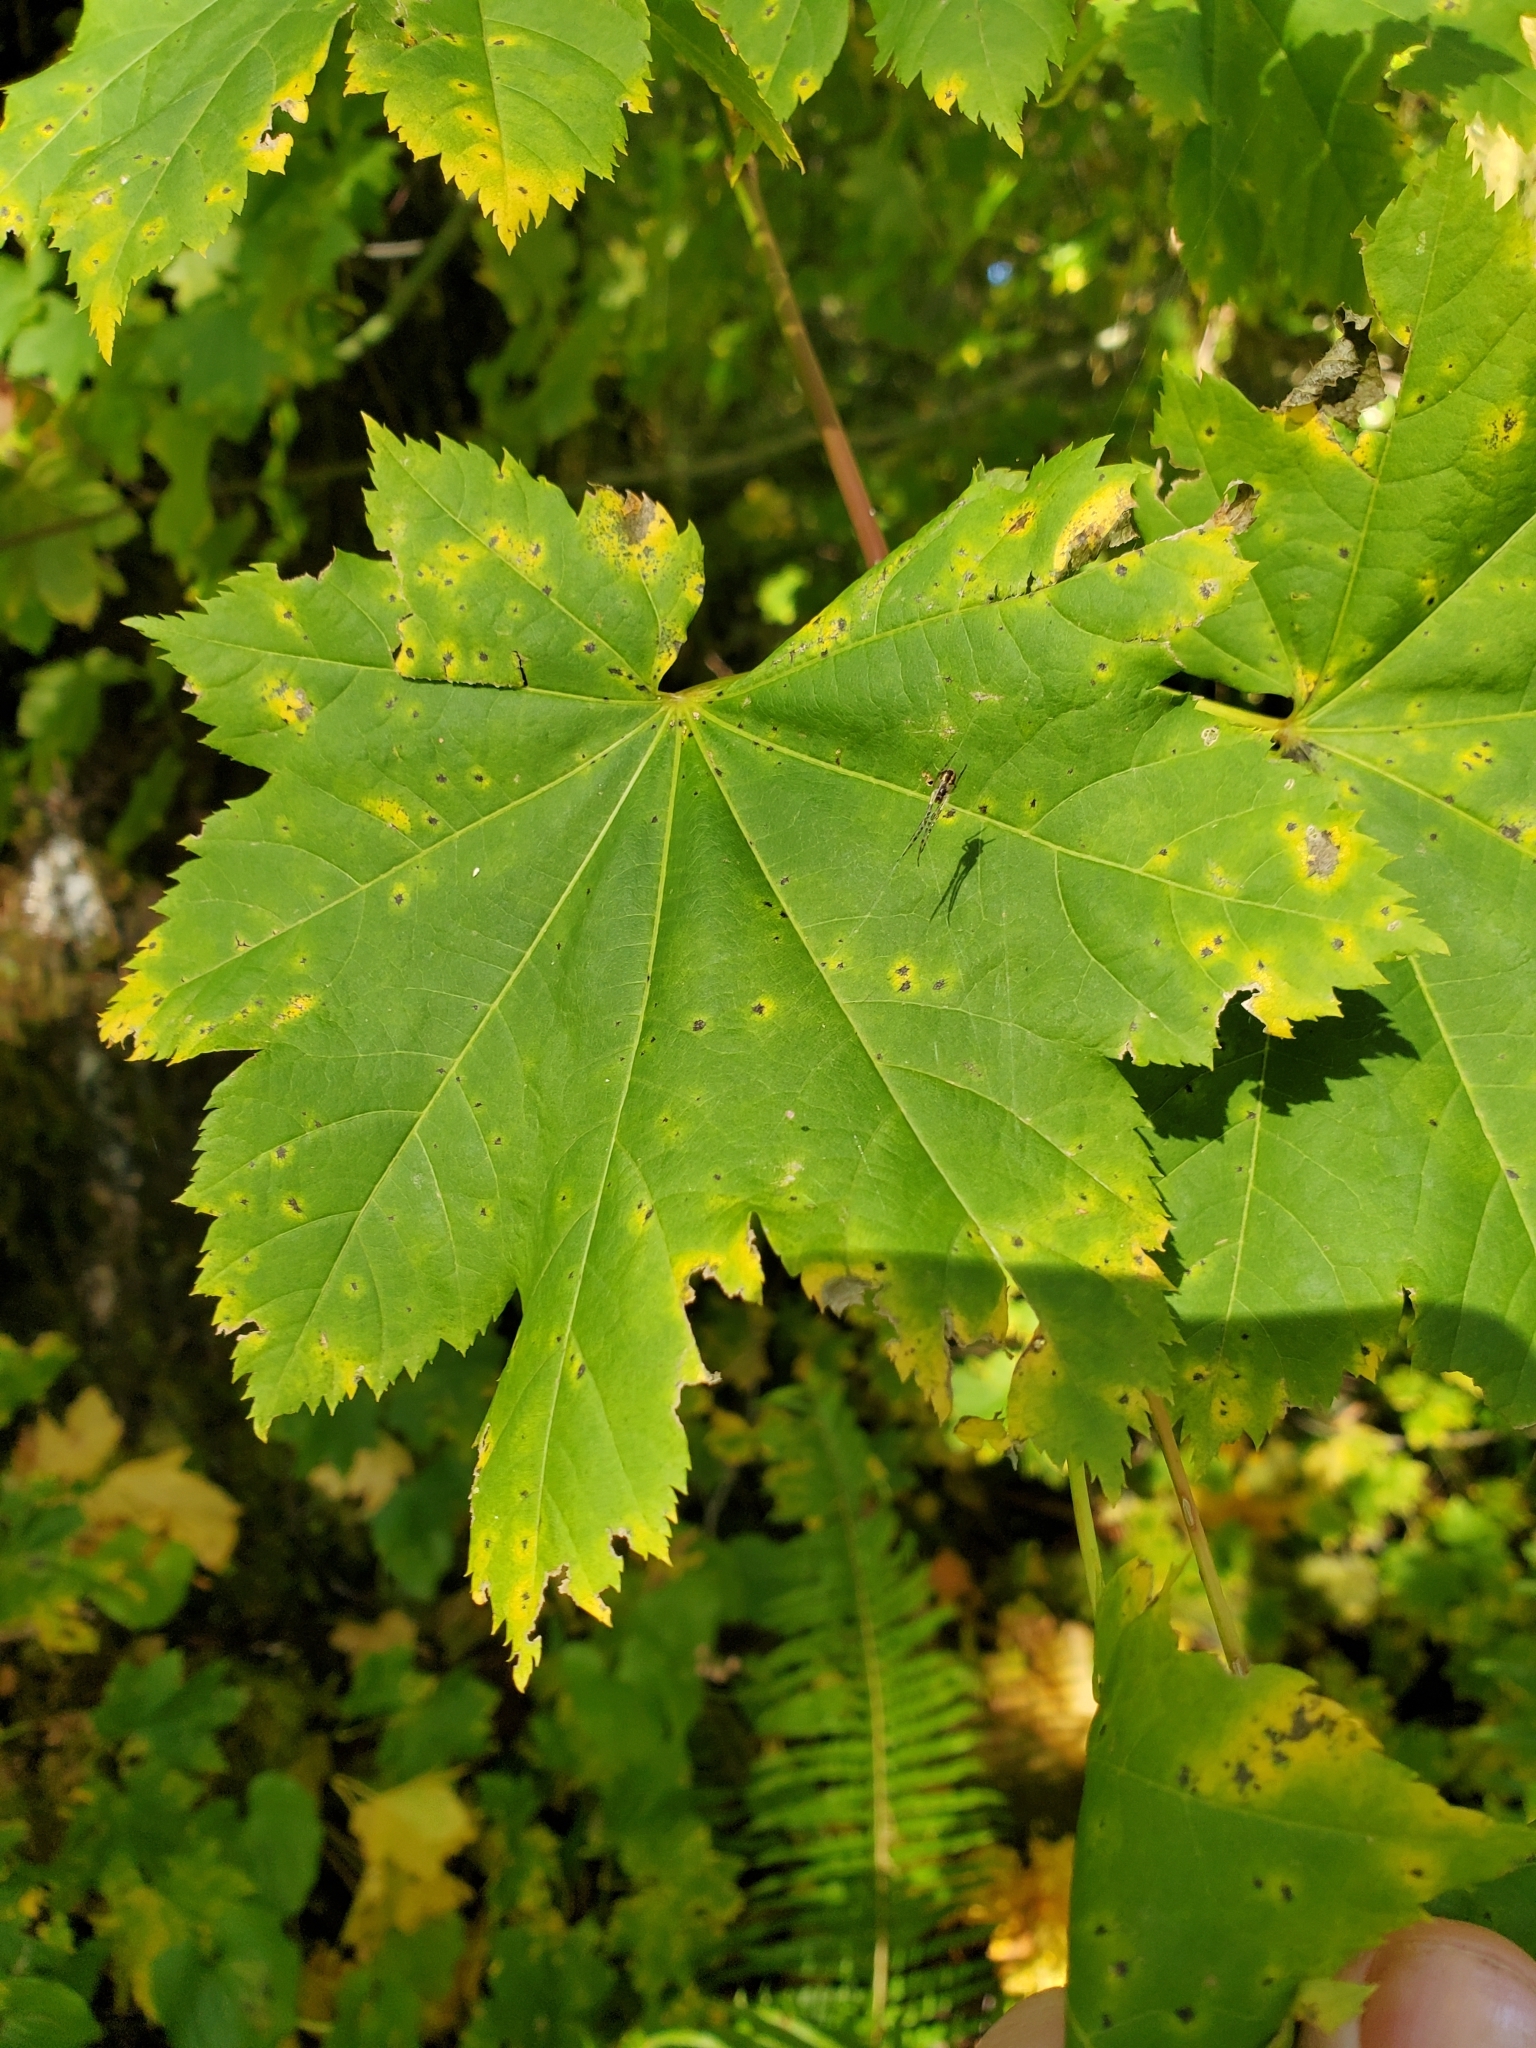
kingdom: Plantae
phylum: Tracheophyta
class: Magnoliopsida
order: Sapindales
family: Sapindaceae
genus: Acer
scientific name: Acer circinatum
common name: Vine maple
